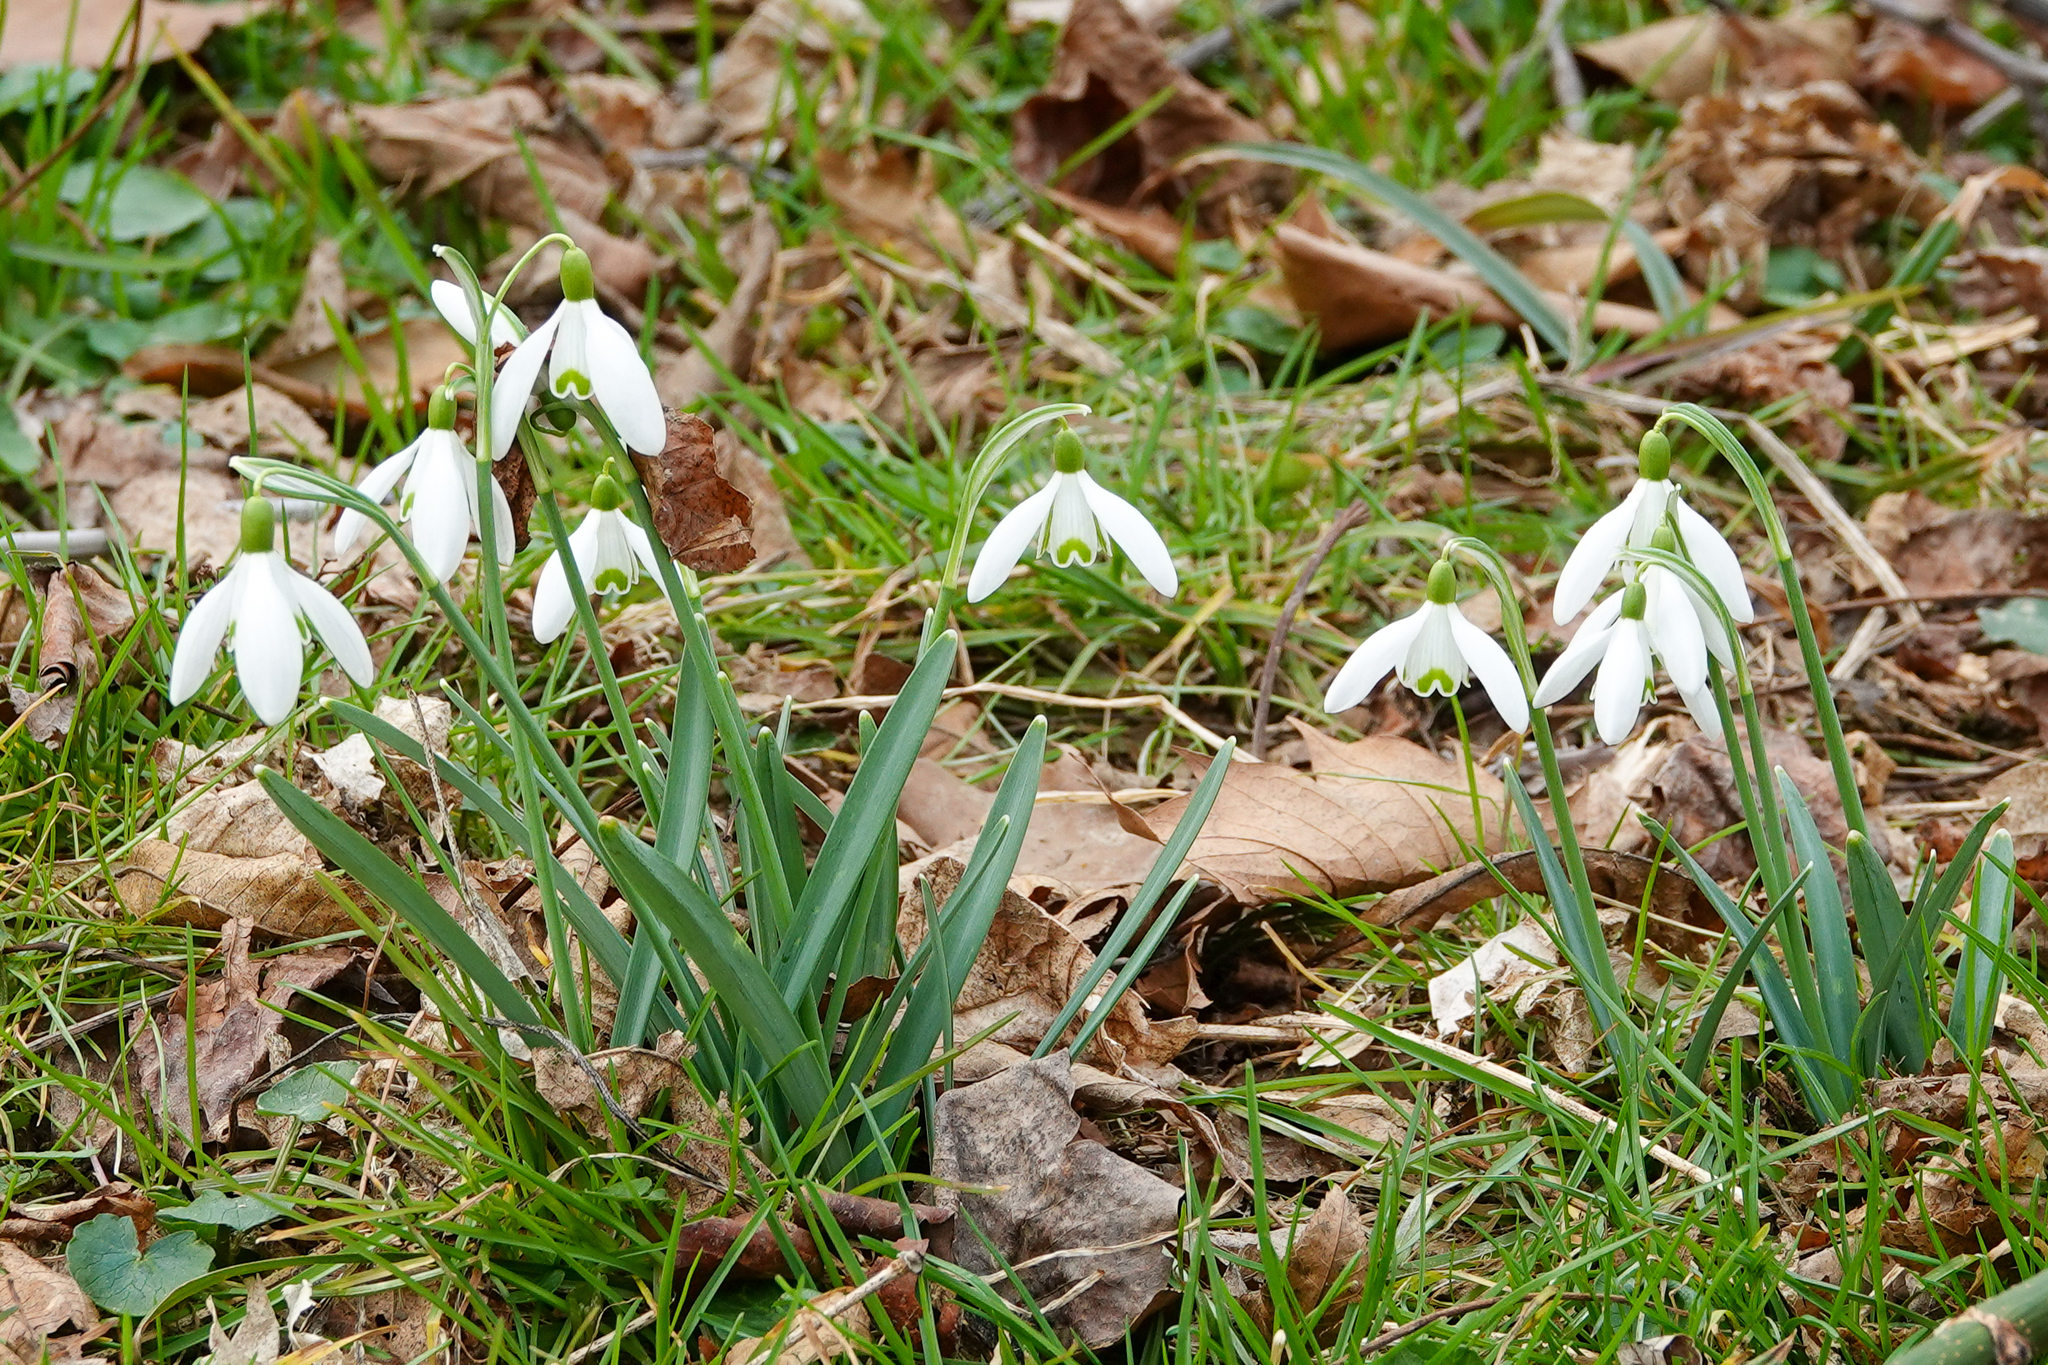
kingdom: Plantae
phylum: Tracheophyta
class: Liliopsida
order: Asparagales
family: Amaryllidaceae
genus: Galanthus
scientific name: Galanthus nivalis
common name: Snowdrop
